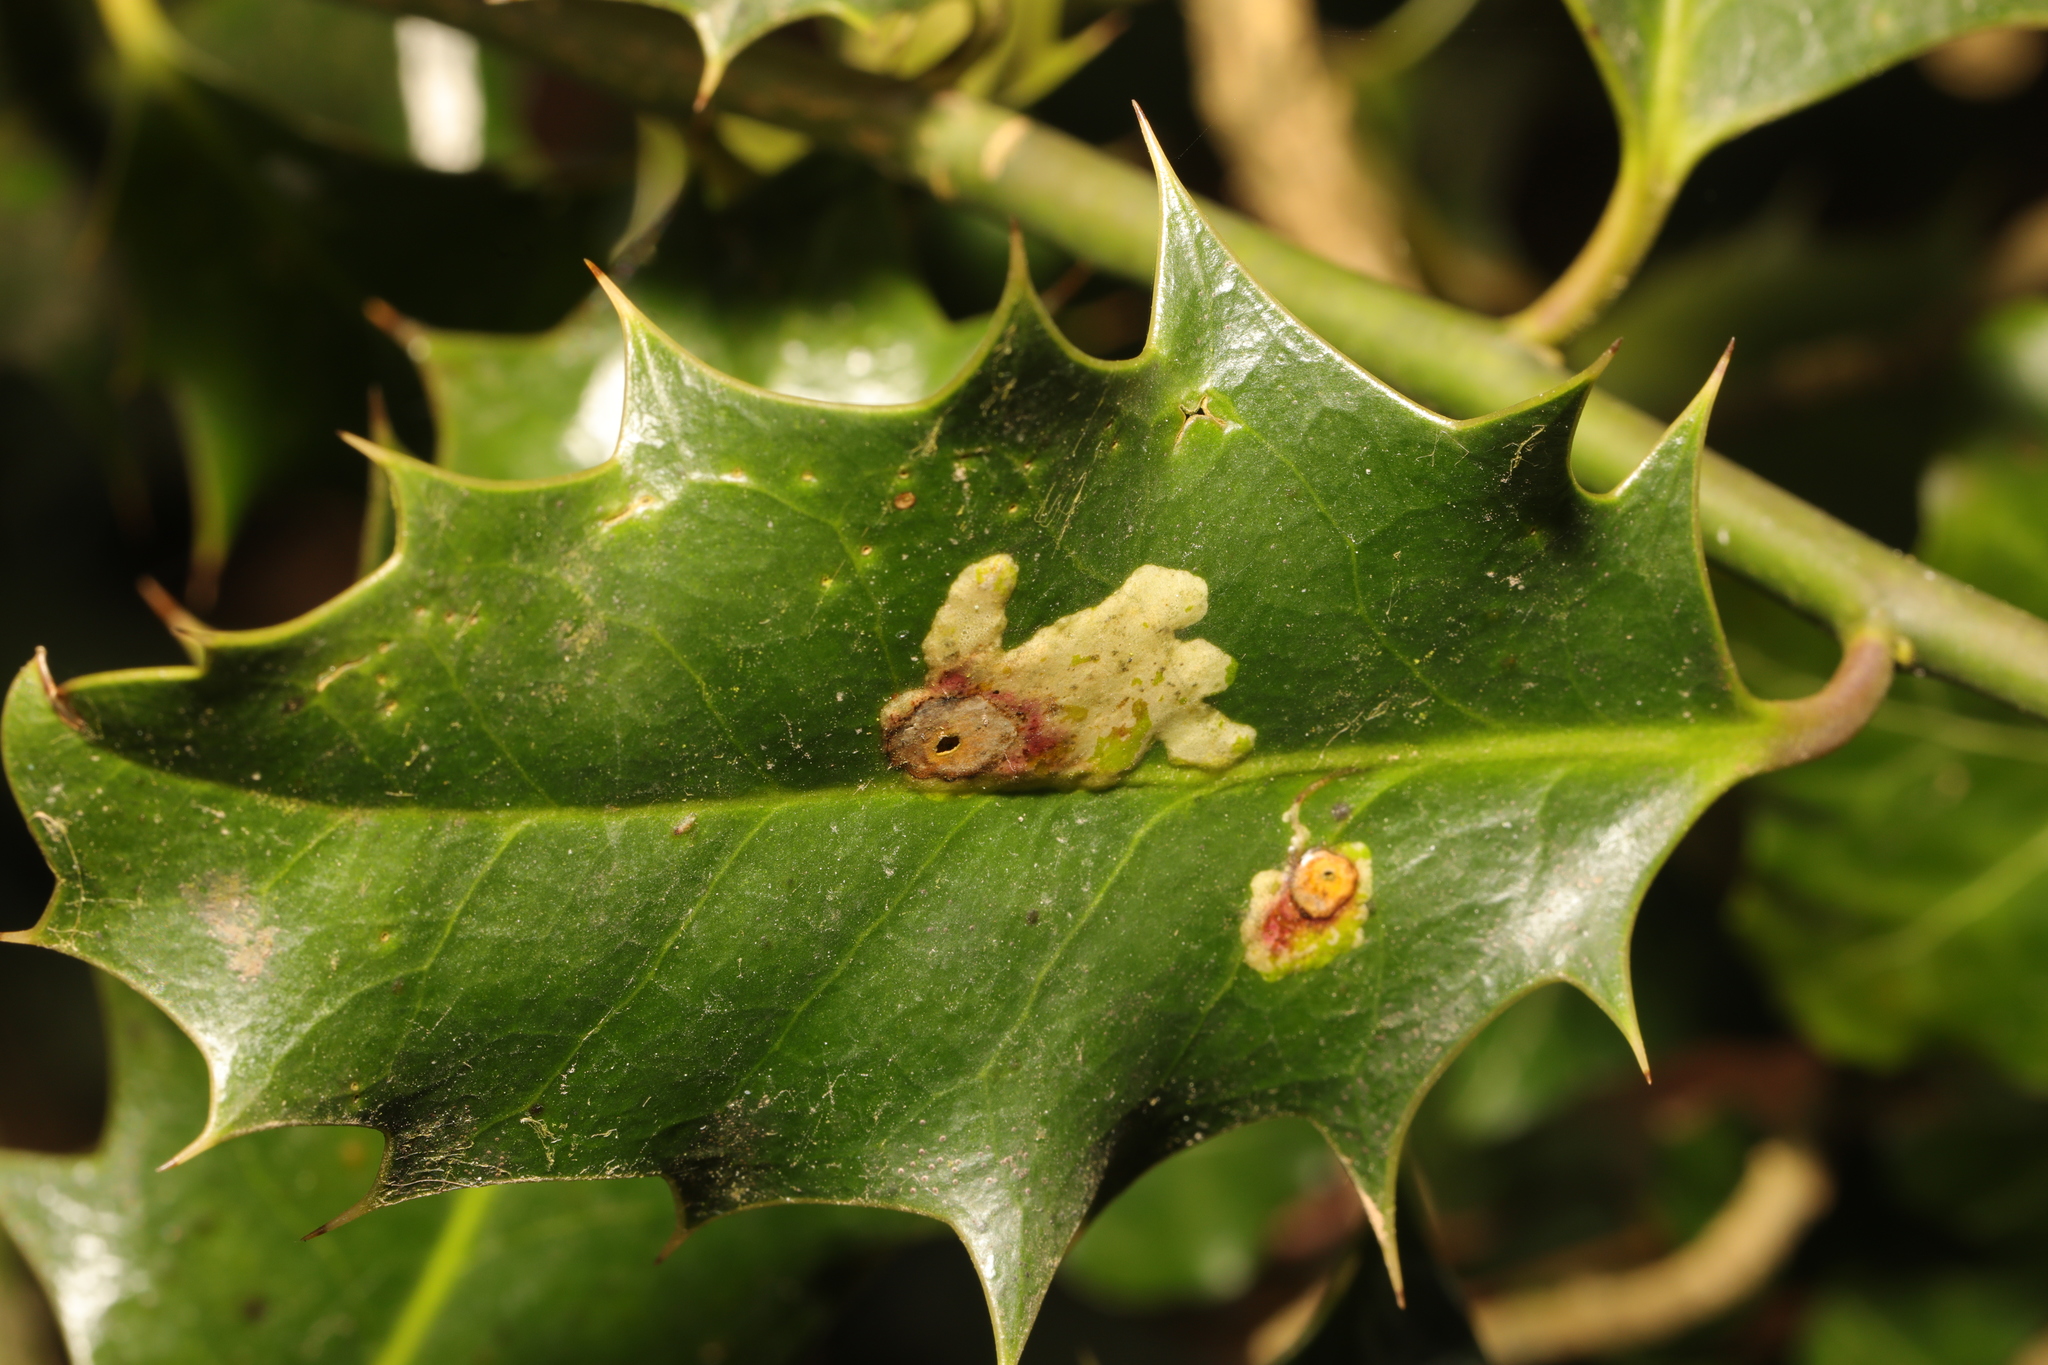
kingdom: Animalia
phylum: Arthropoda
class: Insecta
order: Diptera
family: Agromyzidae
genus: Phytomyza
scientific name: Phytomyza ilicis
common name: Holly leafminer
